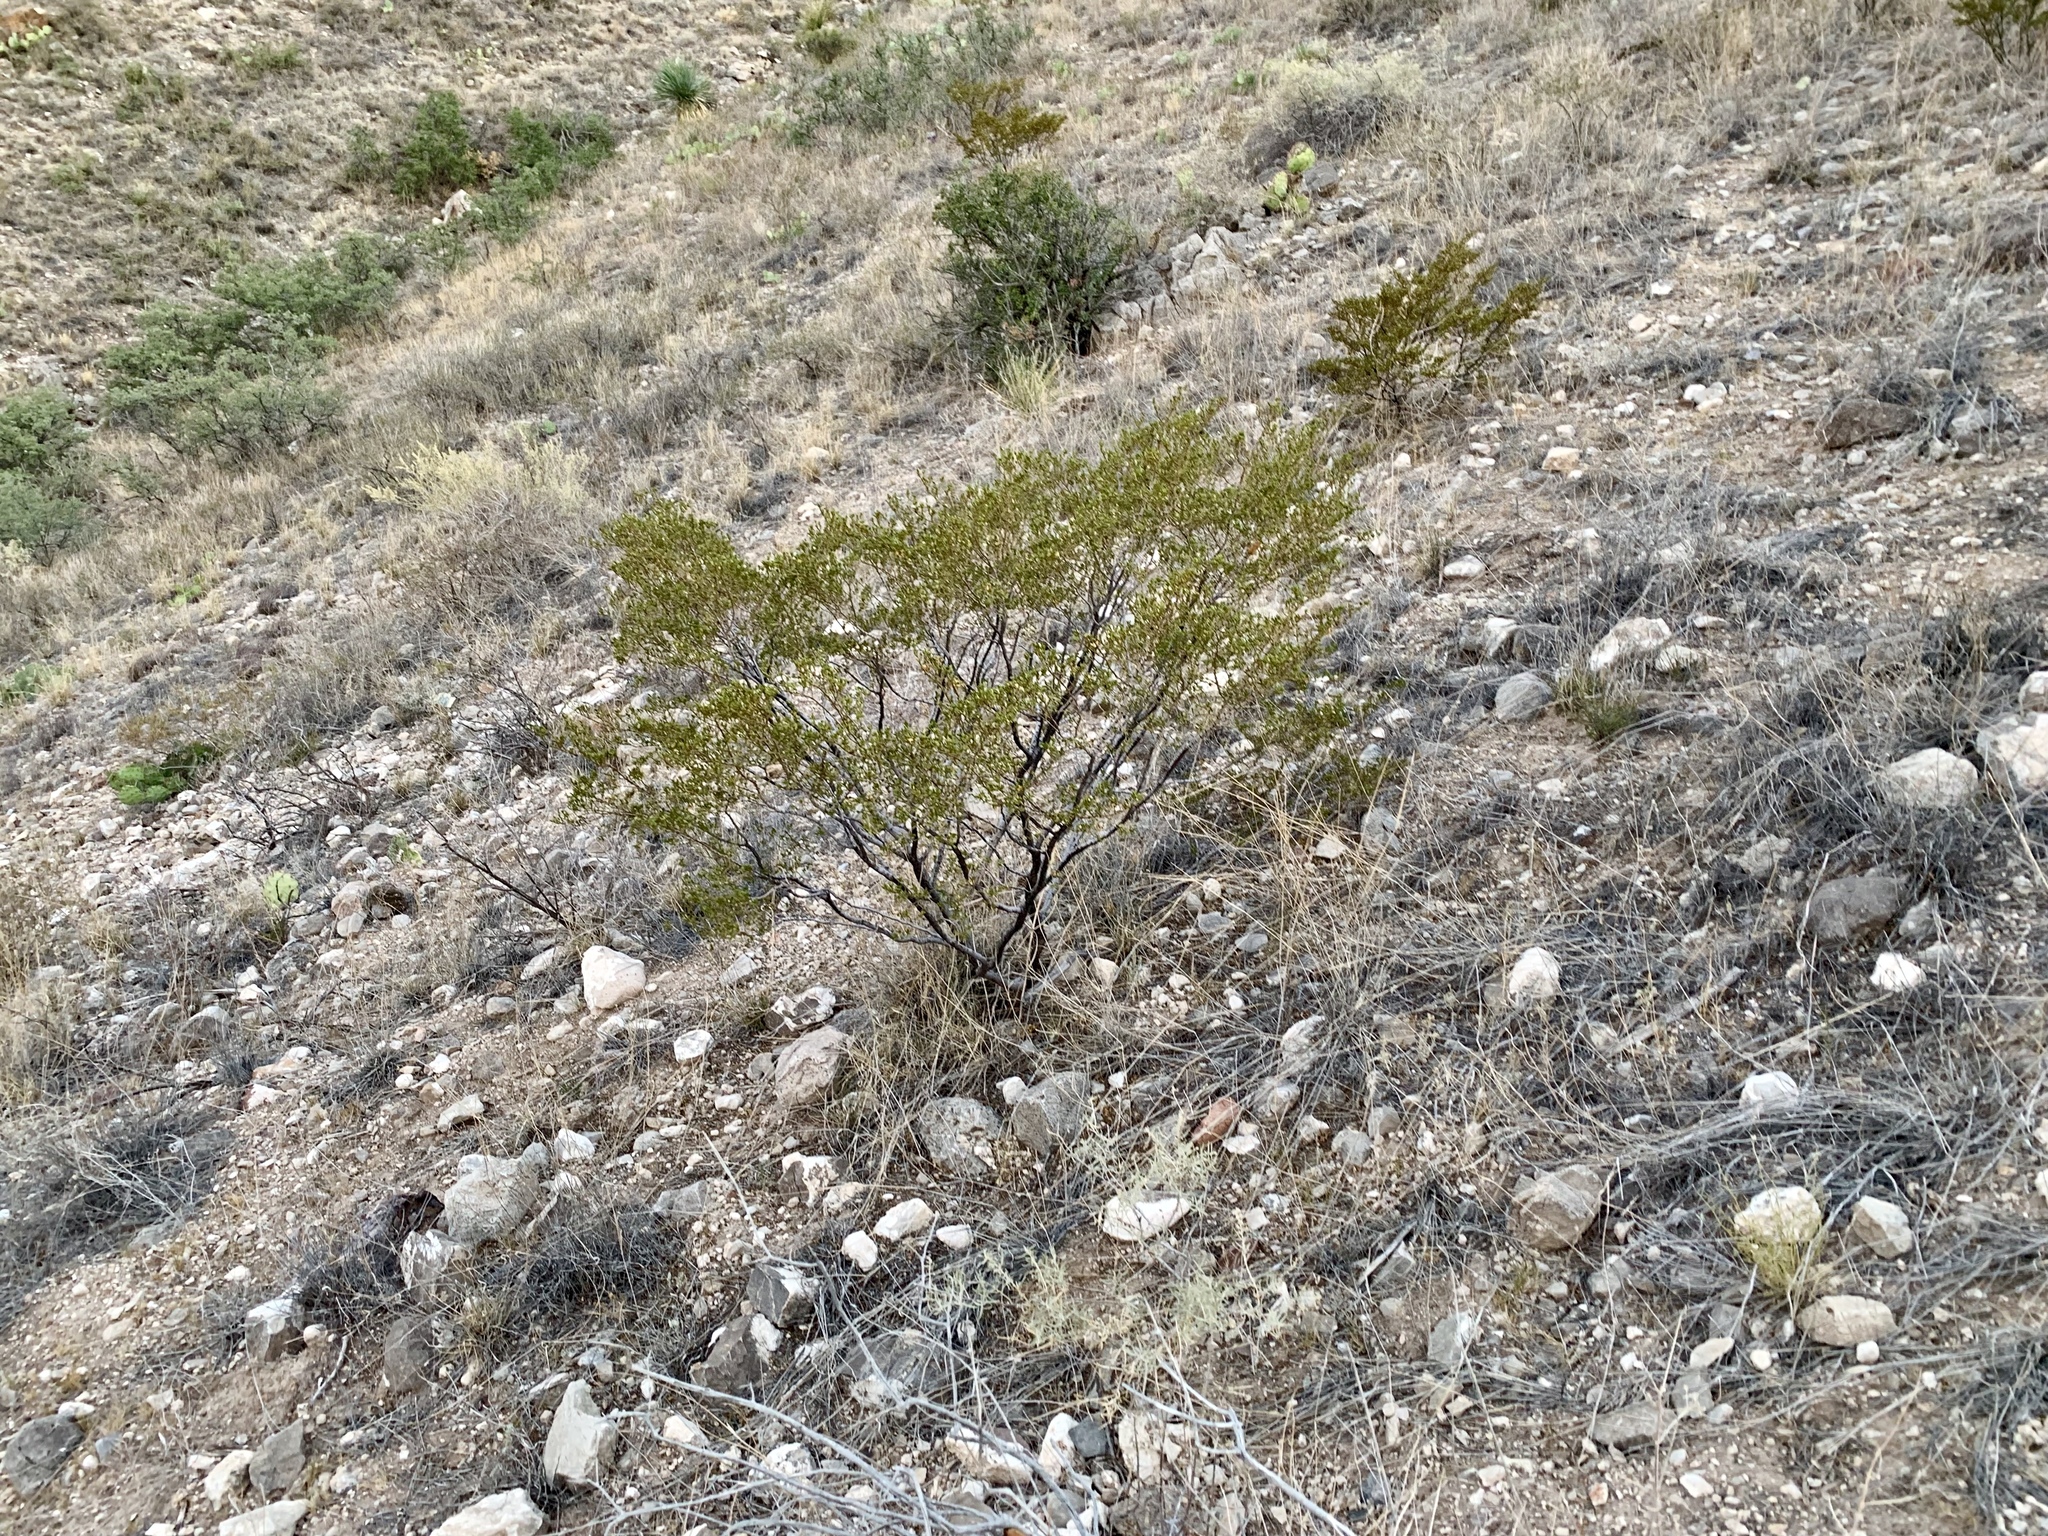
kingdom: Plantae
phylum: Tracheophyta
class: Magnoliopsida
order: Zygophyllales
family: Zygophyllaceae
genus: Larrea
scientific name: Larrea tridentata
